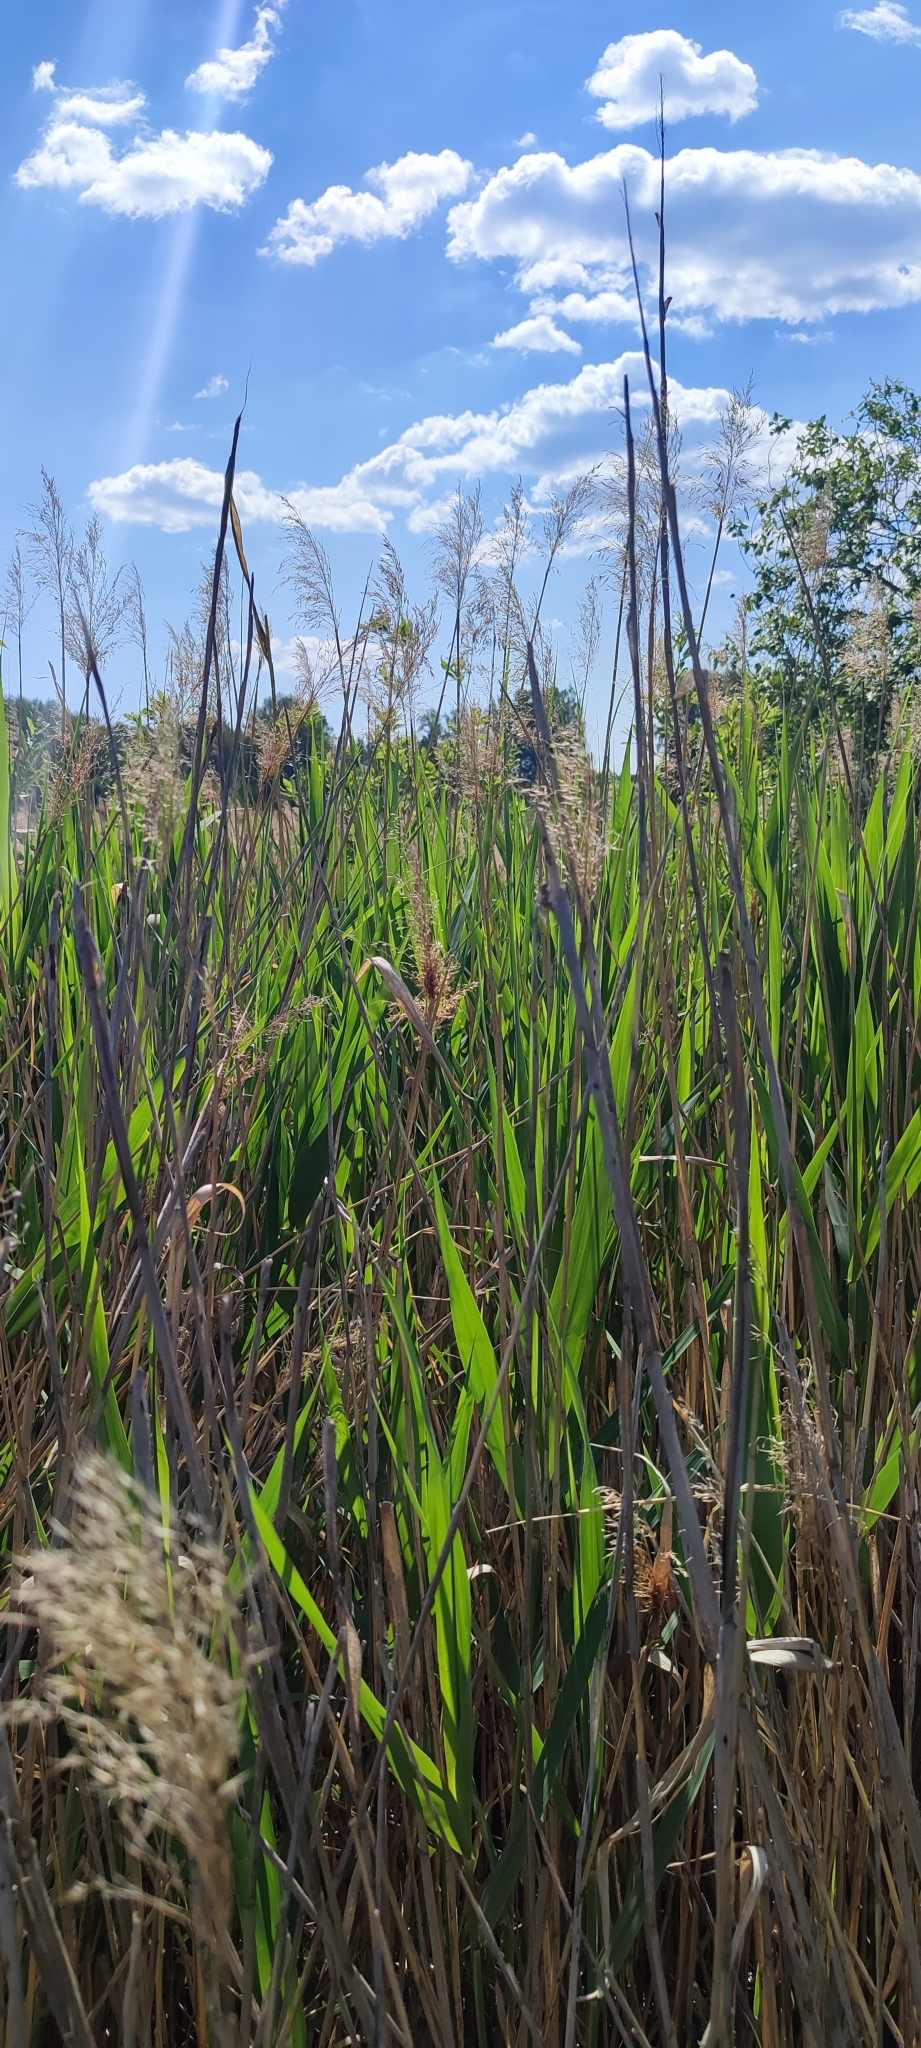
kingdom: Plantae
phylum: Tracheophyta
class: Liliopsida
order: Poales
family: Poaceae
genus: Phragmites
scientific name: Phragmites australis
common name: Common reed
